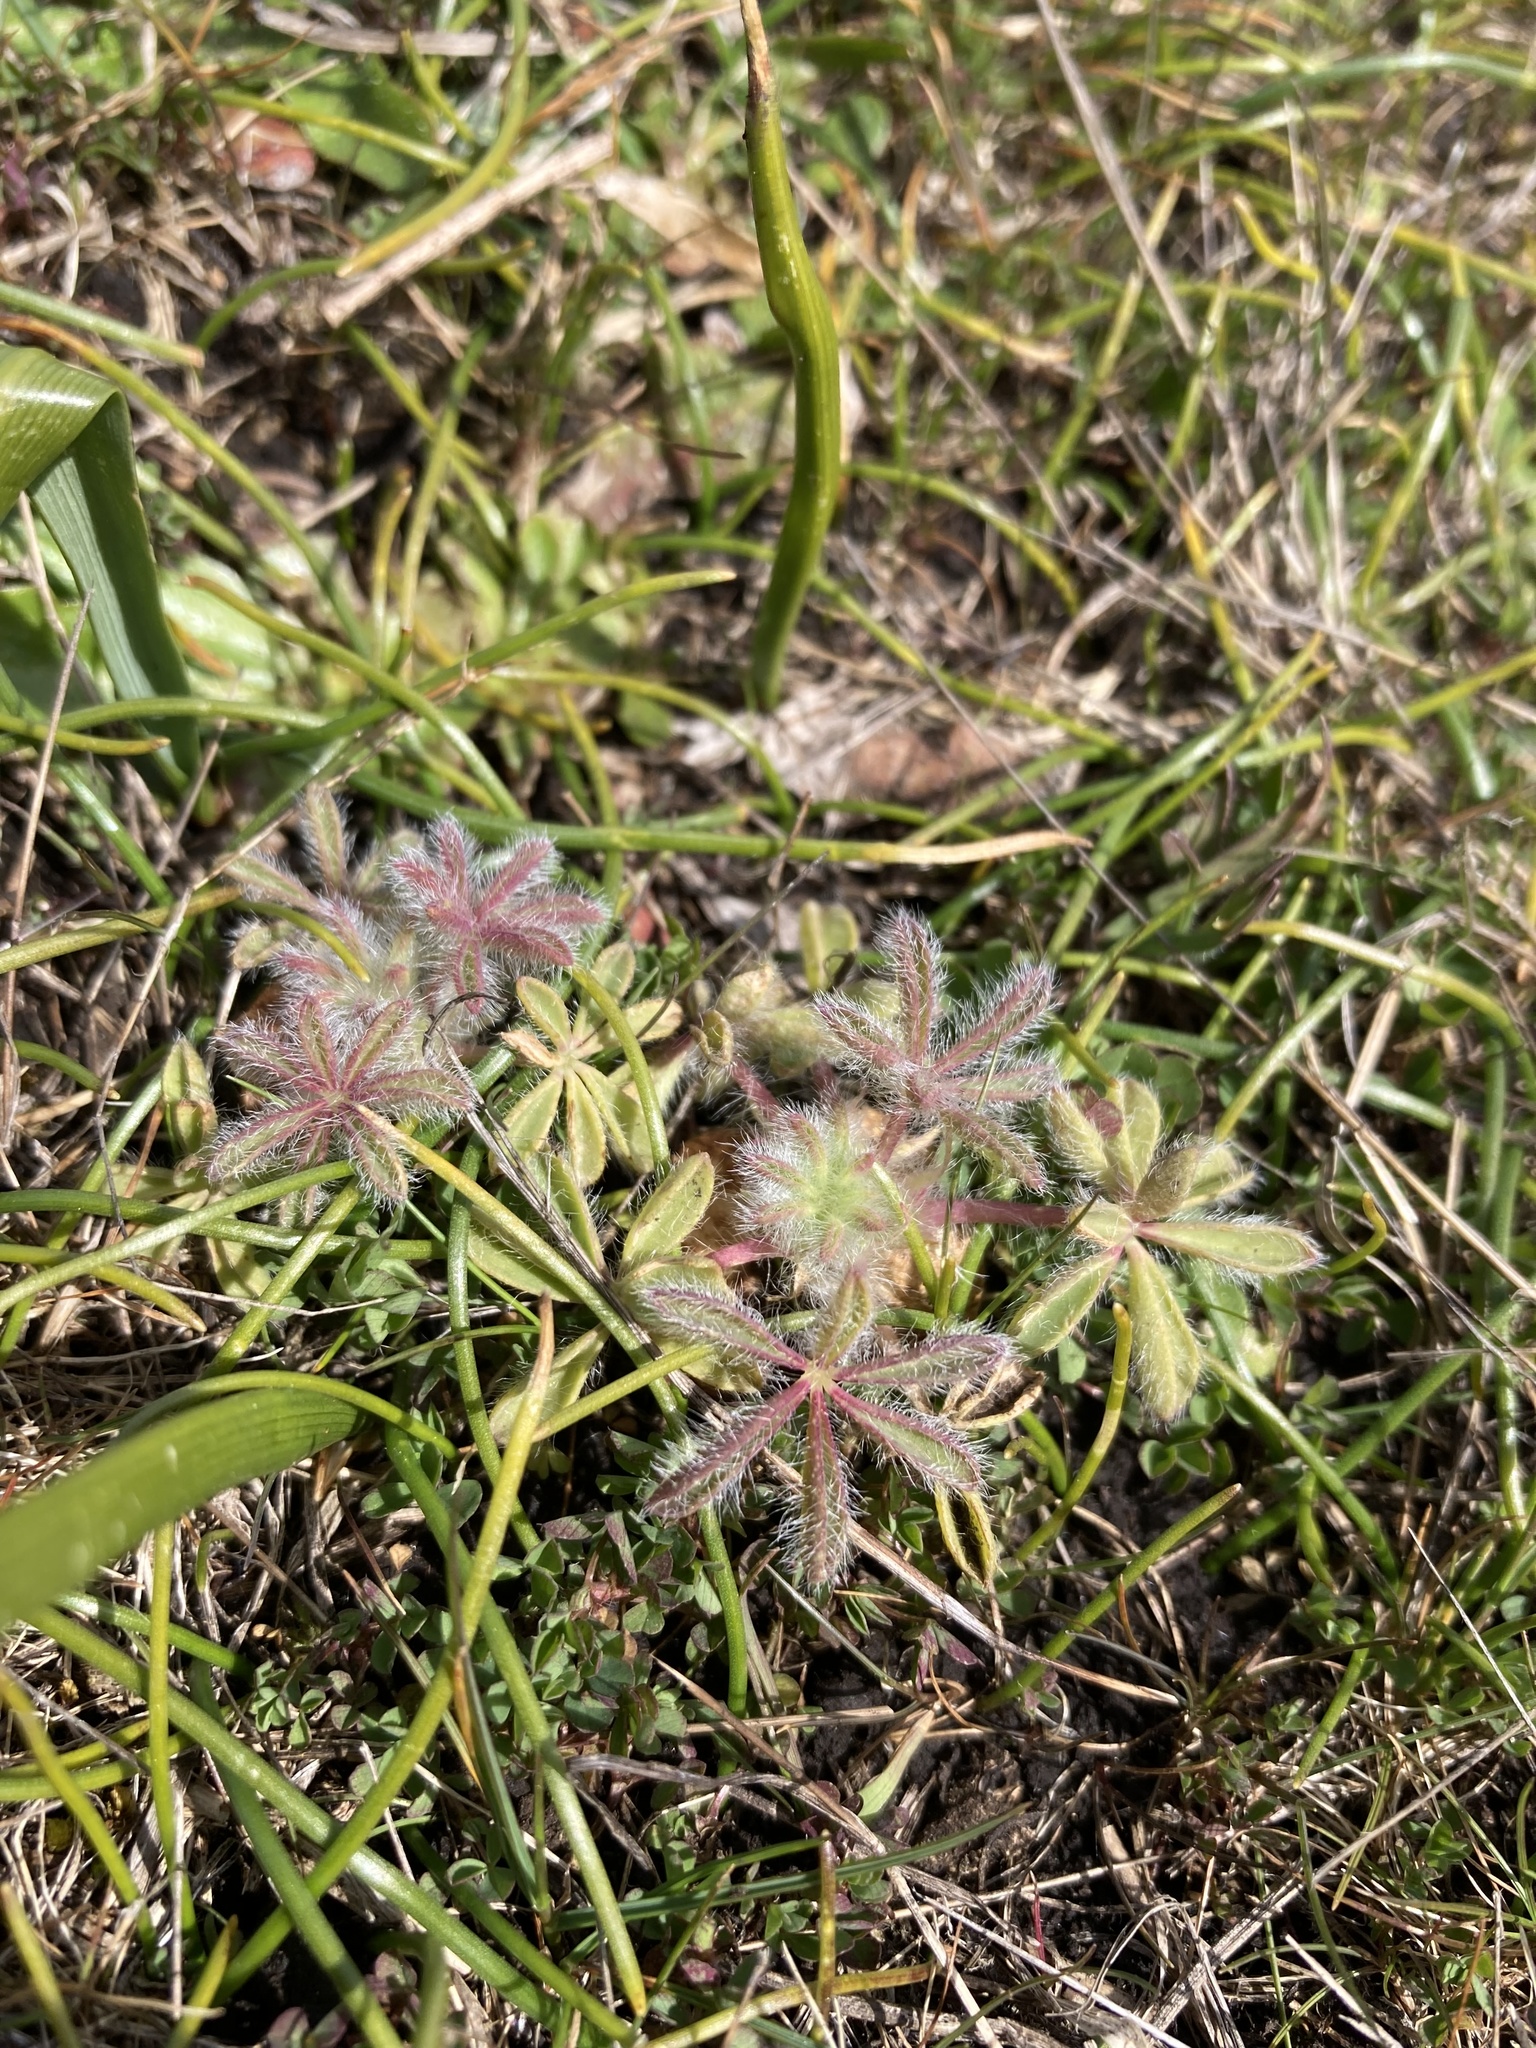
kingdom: Plantae
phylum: Tracheophyta
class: Magnoliopsida
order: Fabales
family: Fabaceae
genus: Lupinus
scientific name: Lupinus densiflorus
